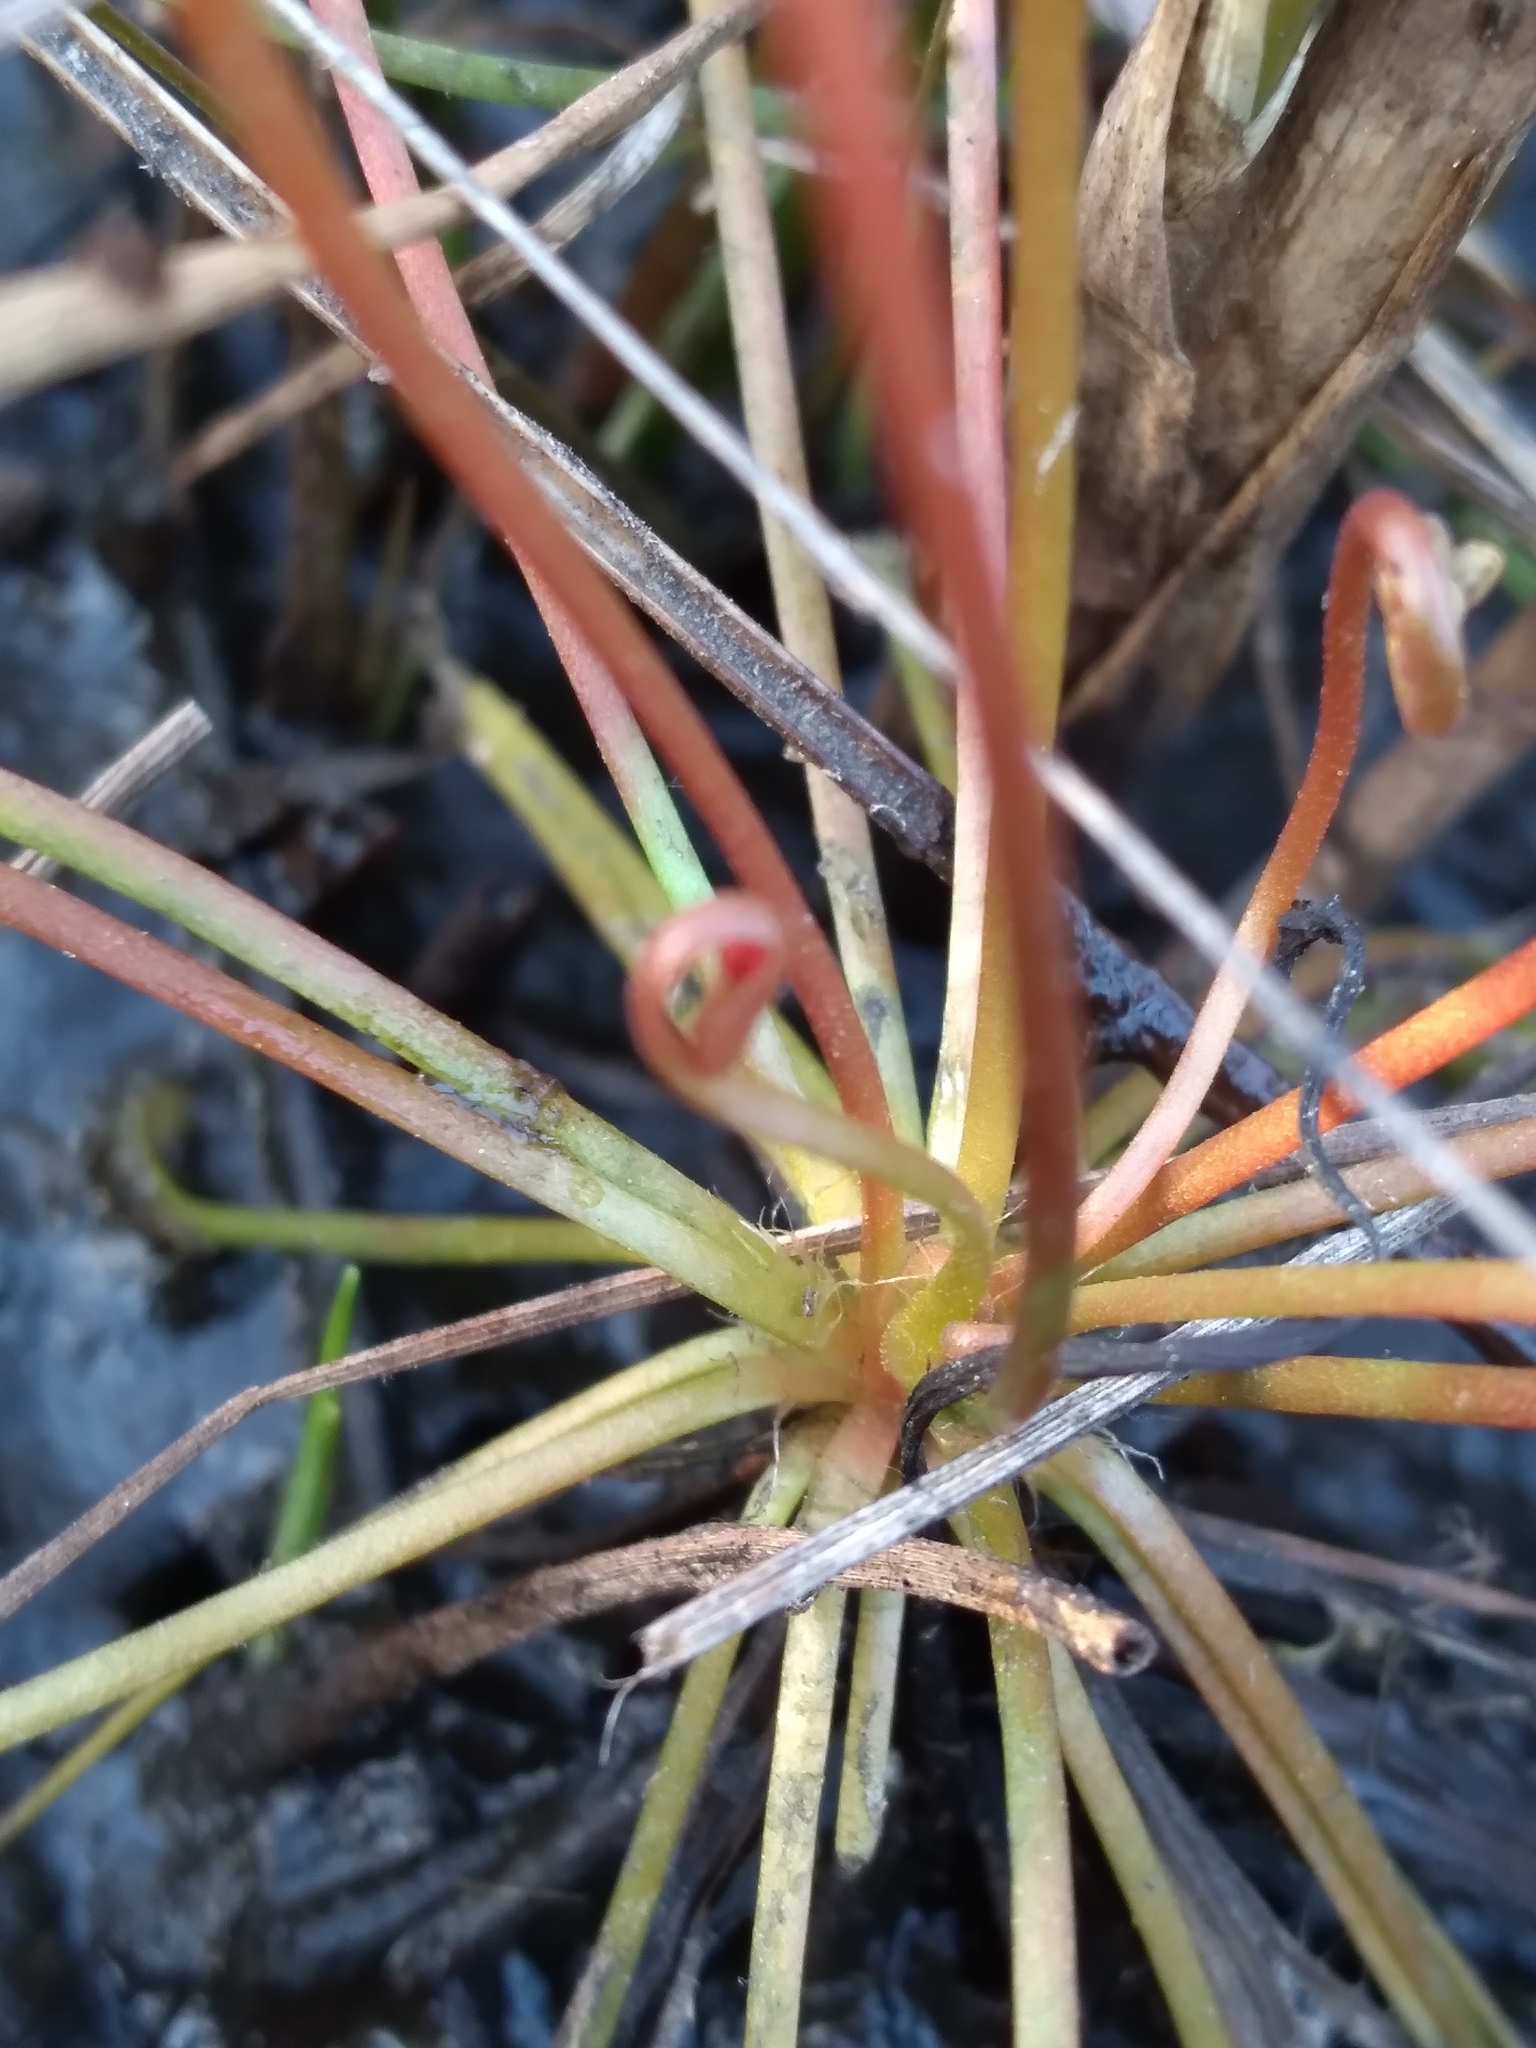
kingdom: Plantae
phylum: Tracheophyta
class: Magnoliopsida
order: Caryophyllales
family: Droseraceae
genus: Drosera
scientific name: Drosera intermedia
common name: Oblong-leaved sundew
